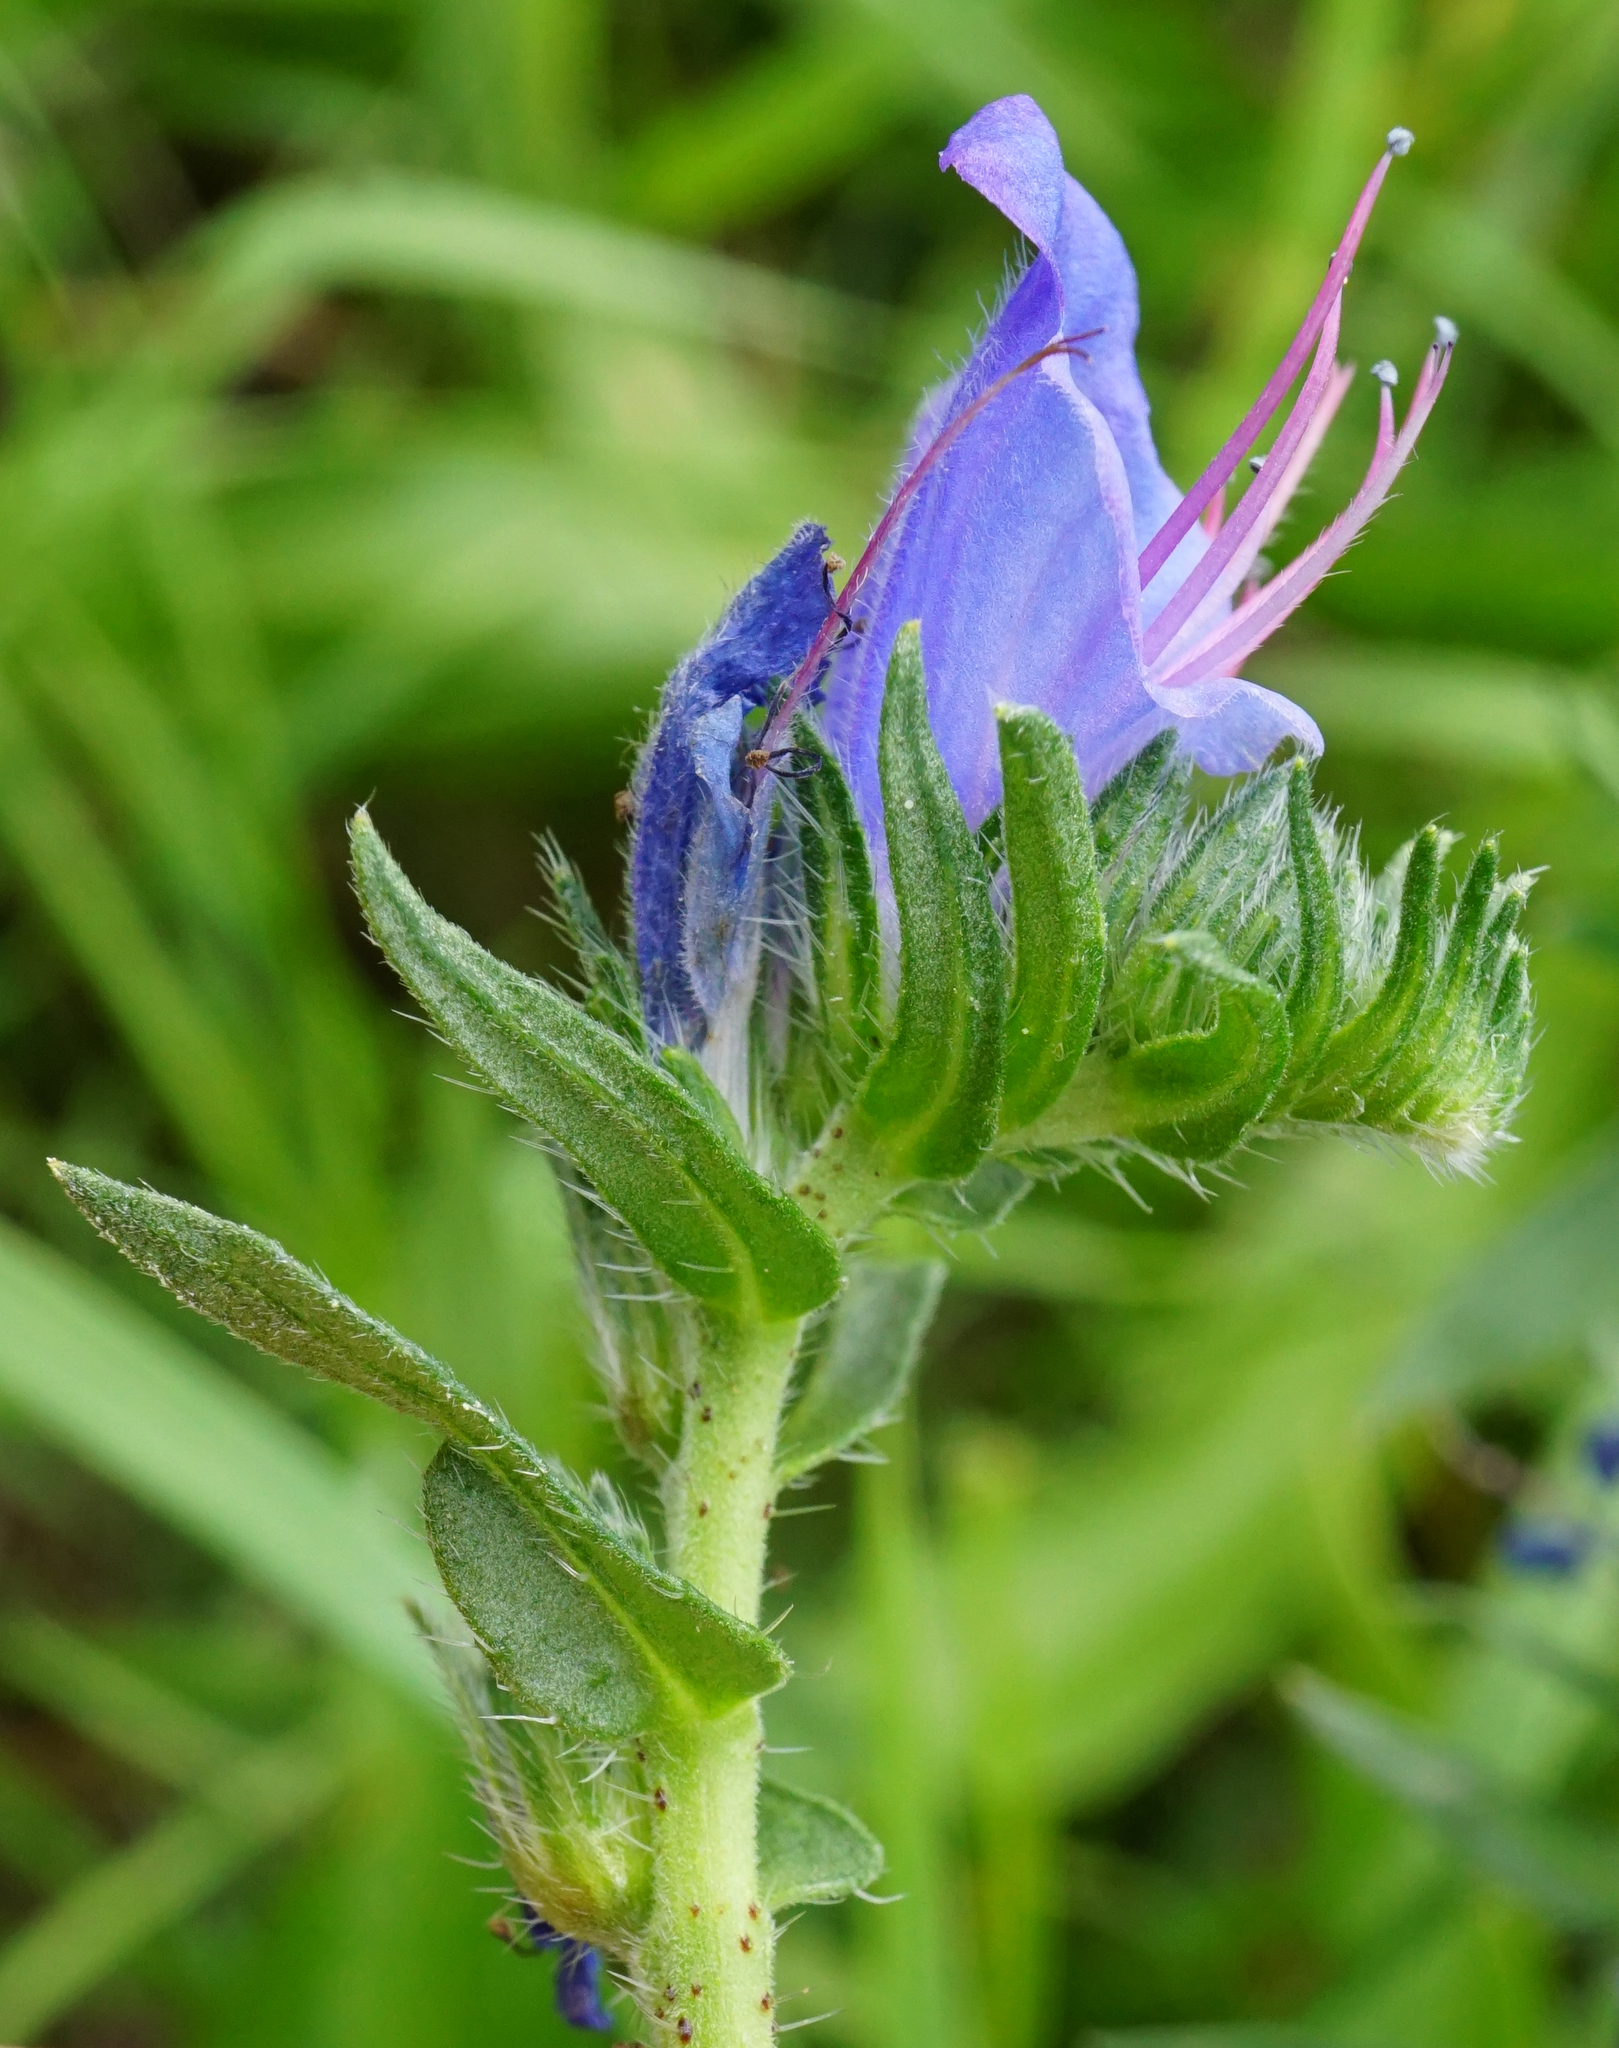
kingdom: Plantae
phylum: Tracheophyta
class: Magnoliopsida
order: Boraginales
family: Boraginaceae
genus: Echium
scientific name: Echium vulgare
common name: Common viper's bugloss
